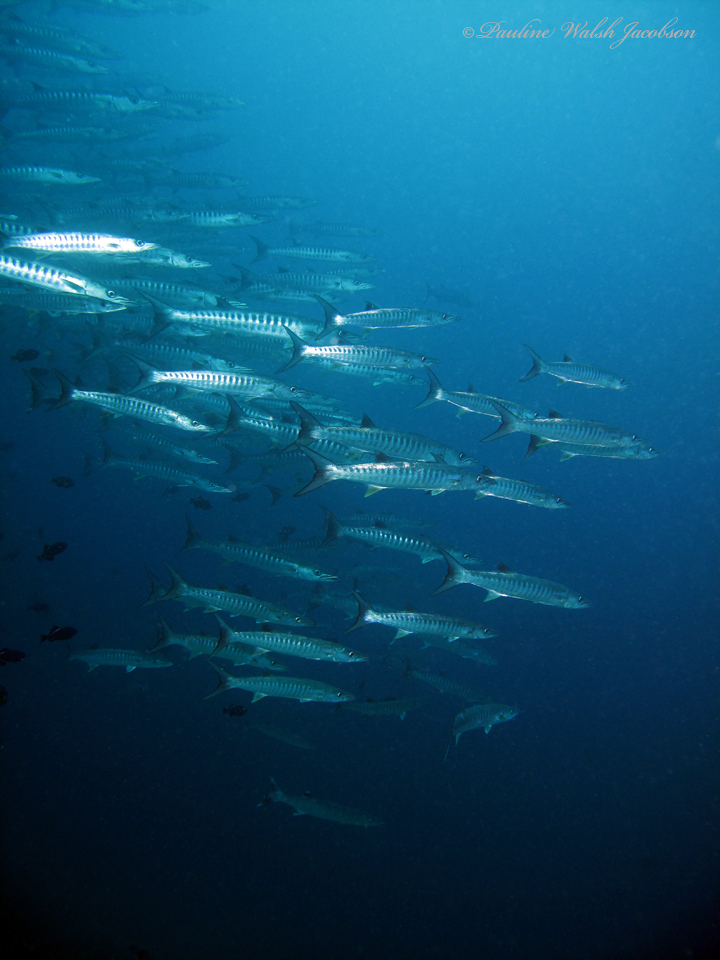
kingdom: Animalia
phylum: Chordata
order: Perciformes
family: Sphyraenidae
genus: Sphyraena
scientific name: Sphyraena qenie
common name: Blackfin barracuda
